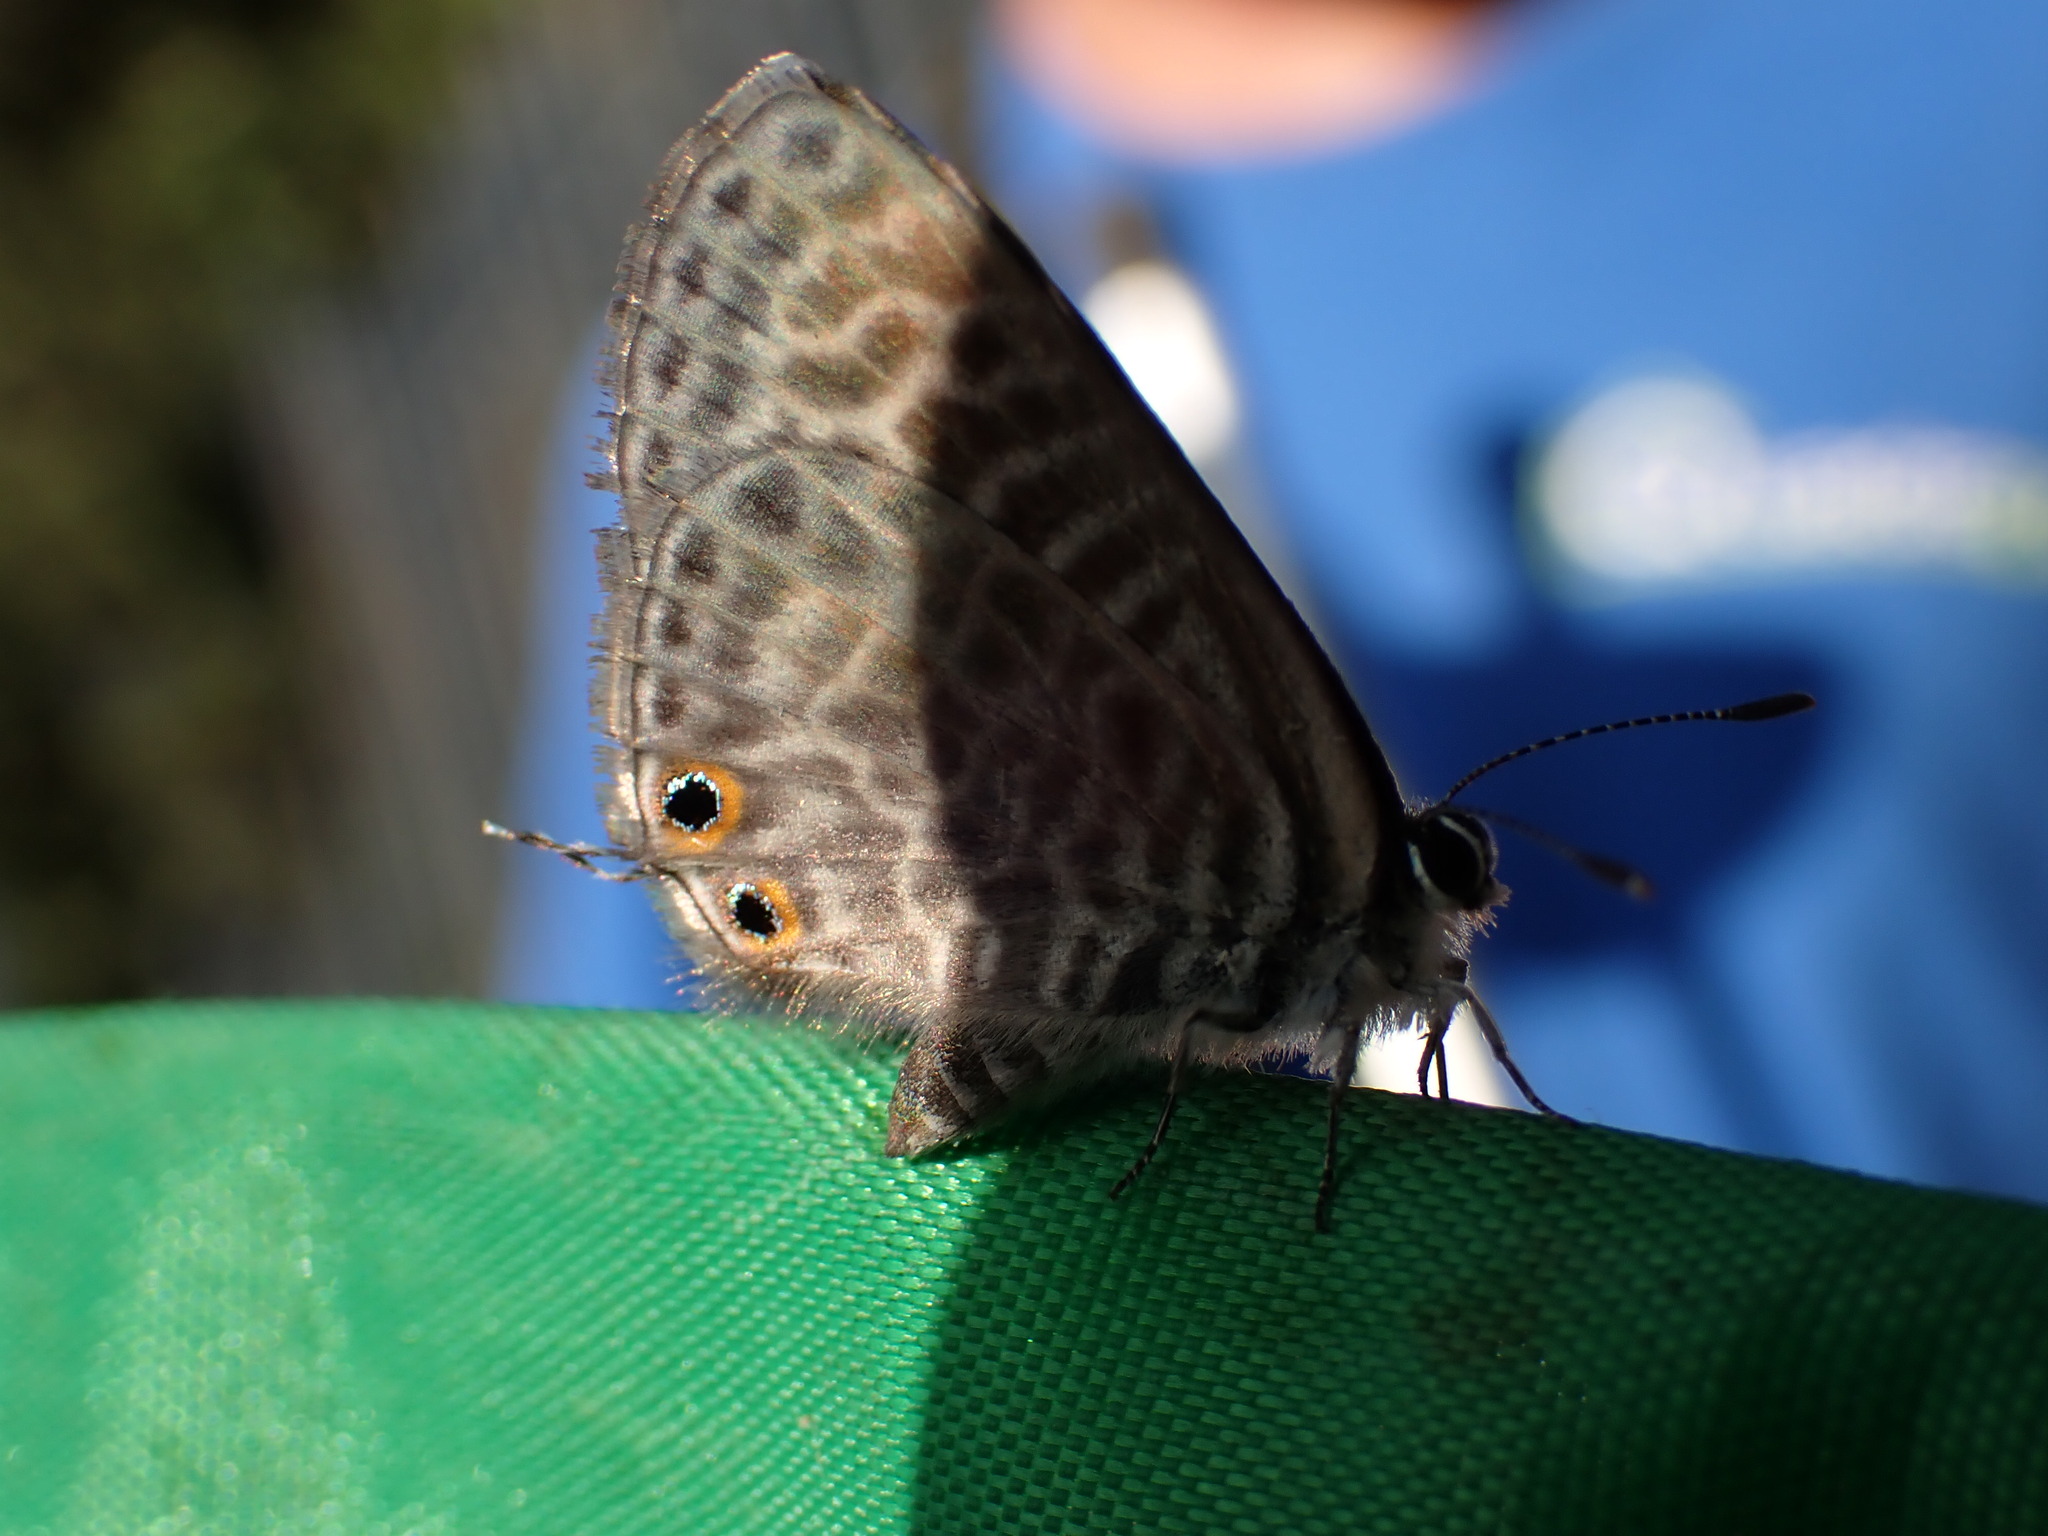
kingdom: Animalia
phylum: Arthropoda
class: Insecta
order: Lepidoptera
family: Lycaenidae
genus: Leptotes
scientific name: Leptotes pirithous
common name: Lang's short-tailed blue
